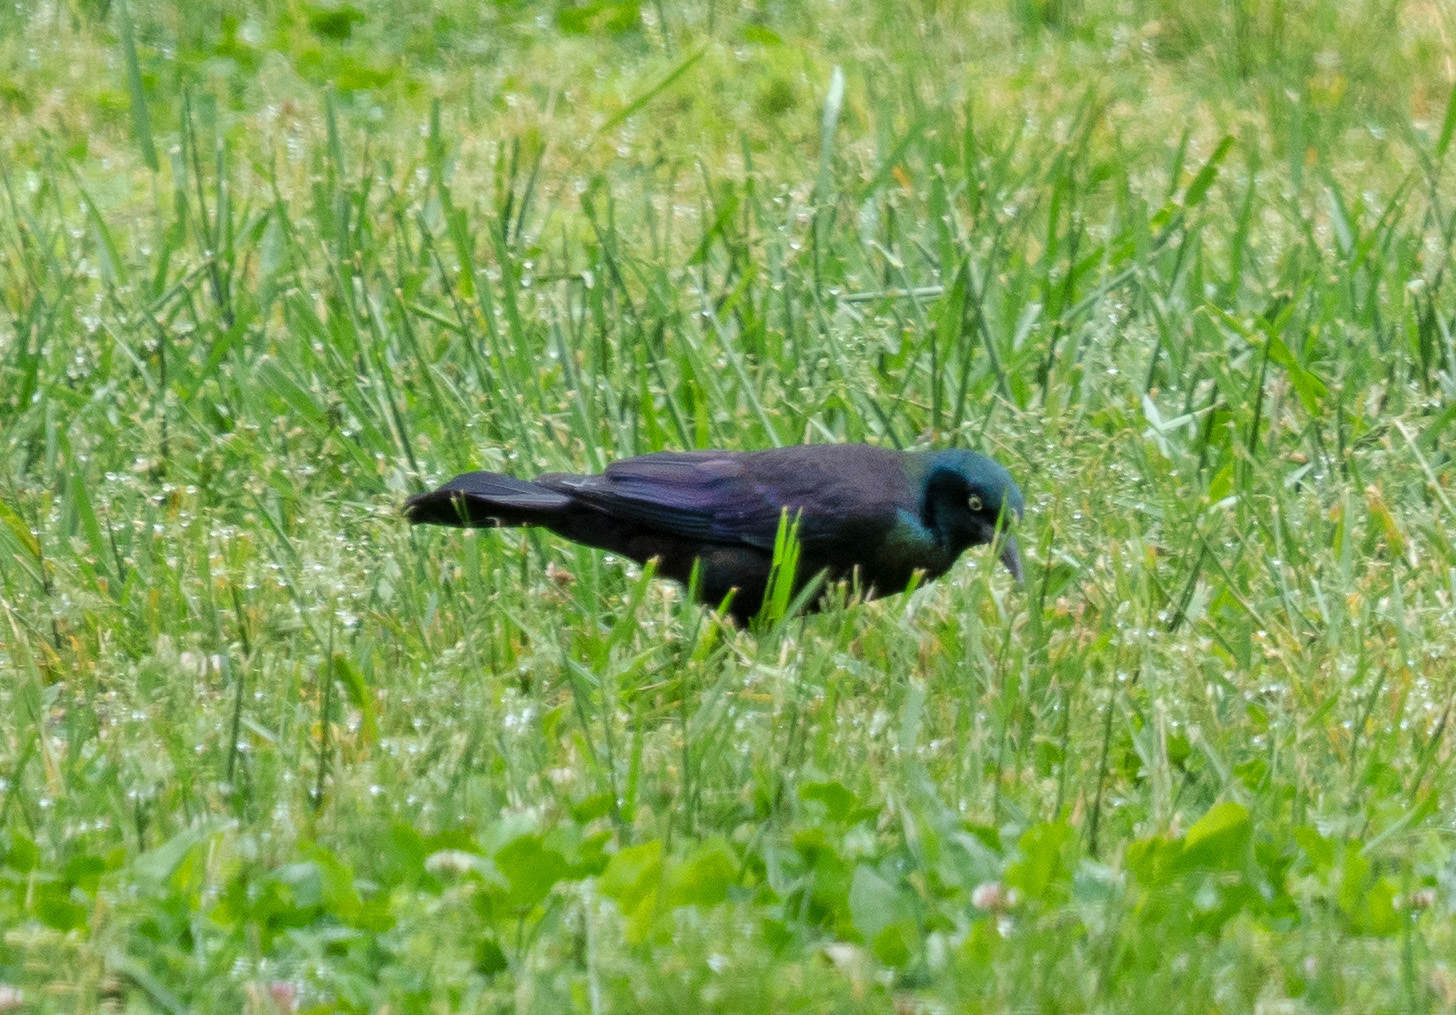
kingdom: Animalia
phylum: Chordata
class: Aves
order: Passeriformes
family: Icteridae
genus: Quiscalus
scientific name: Quiscalus quiscula
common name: Common grackle
